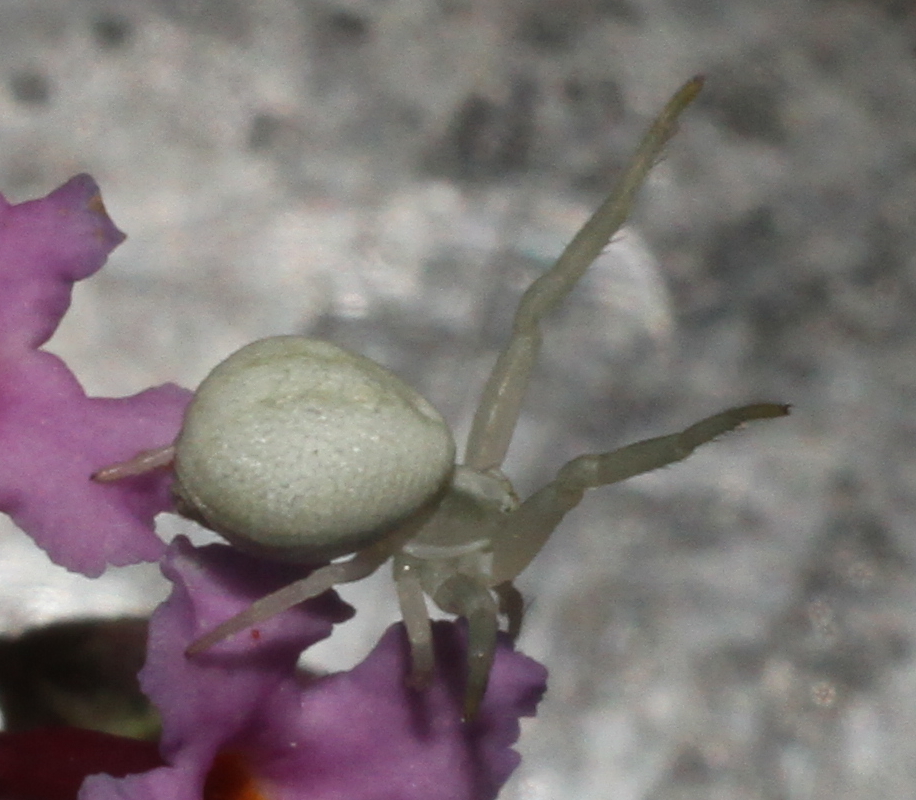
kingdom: Animalia
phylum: Arthropoda
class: Arachnida
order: Araneae
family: Thomisidae
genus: Misumena
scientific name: Misumena vatia
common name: Goldenrod crab spider
